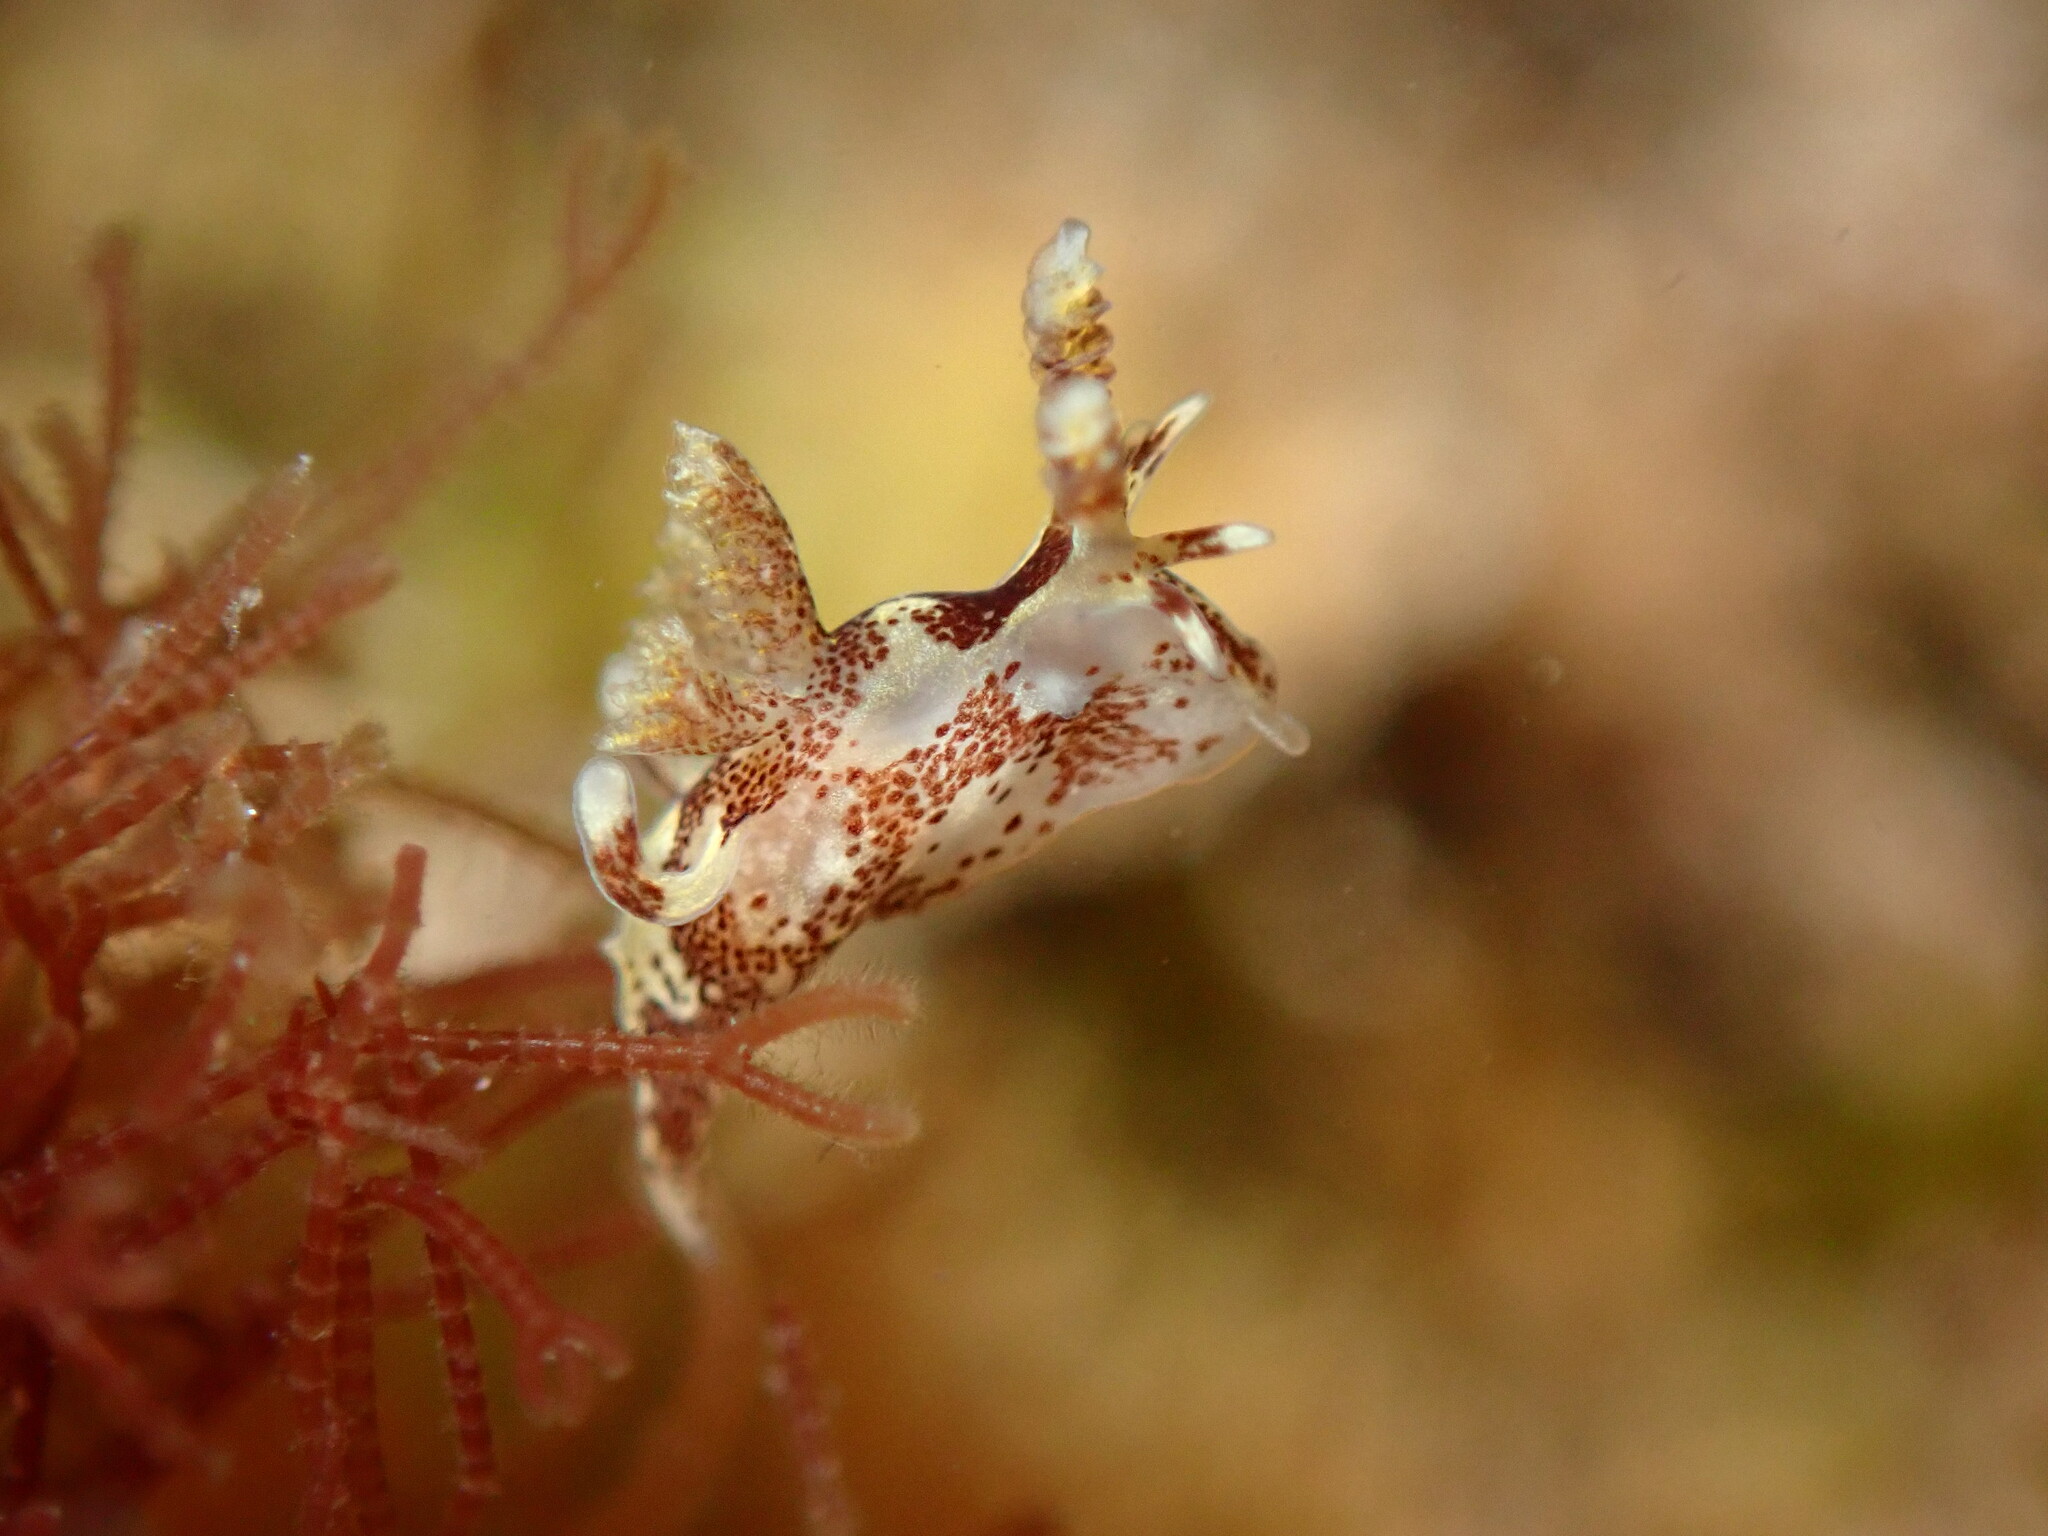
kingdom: Animalia
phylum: Mollusca
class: Gastropoda
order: Nudibranchia
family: Goniodorididae
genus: Ancula
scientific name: Ancula lentiginosa
